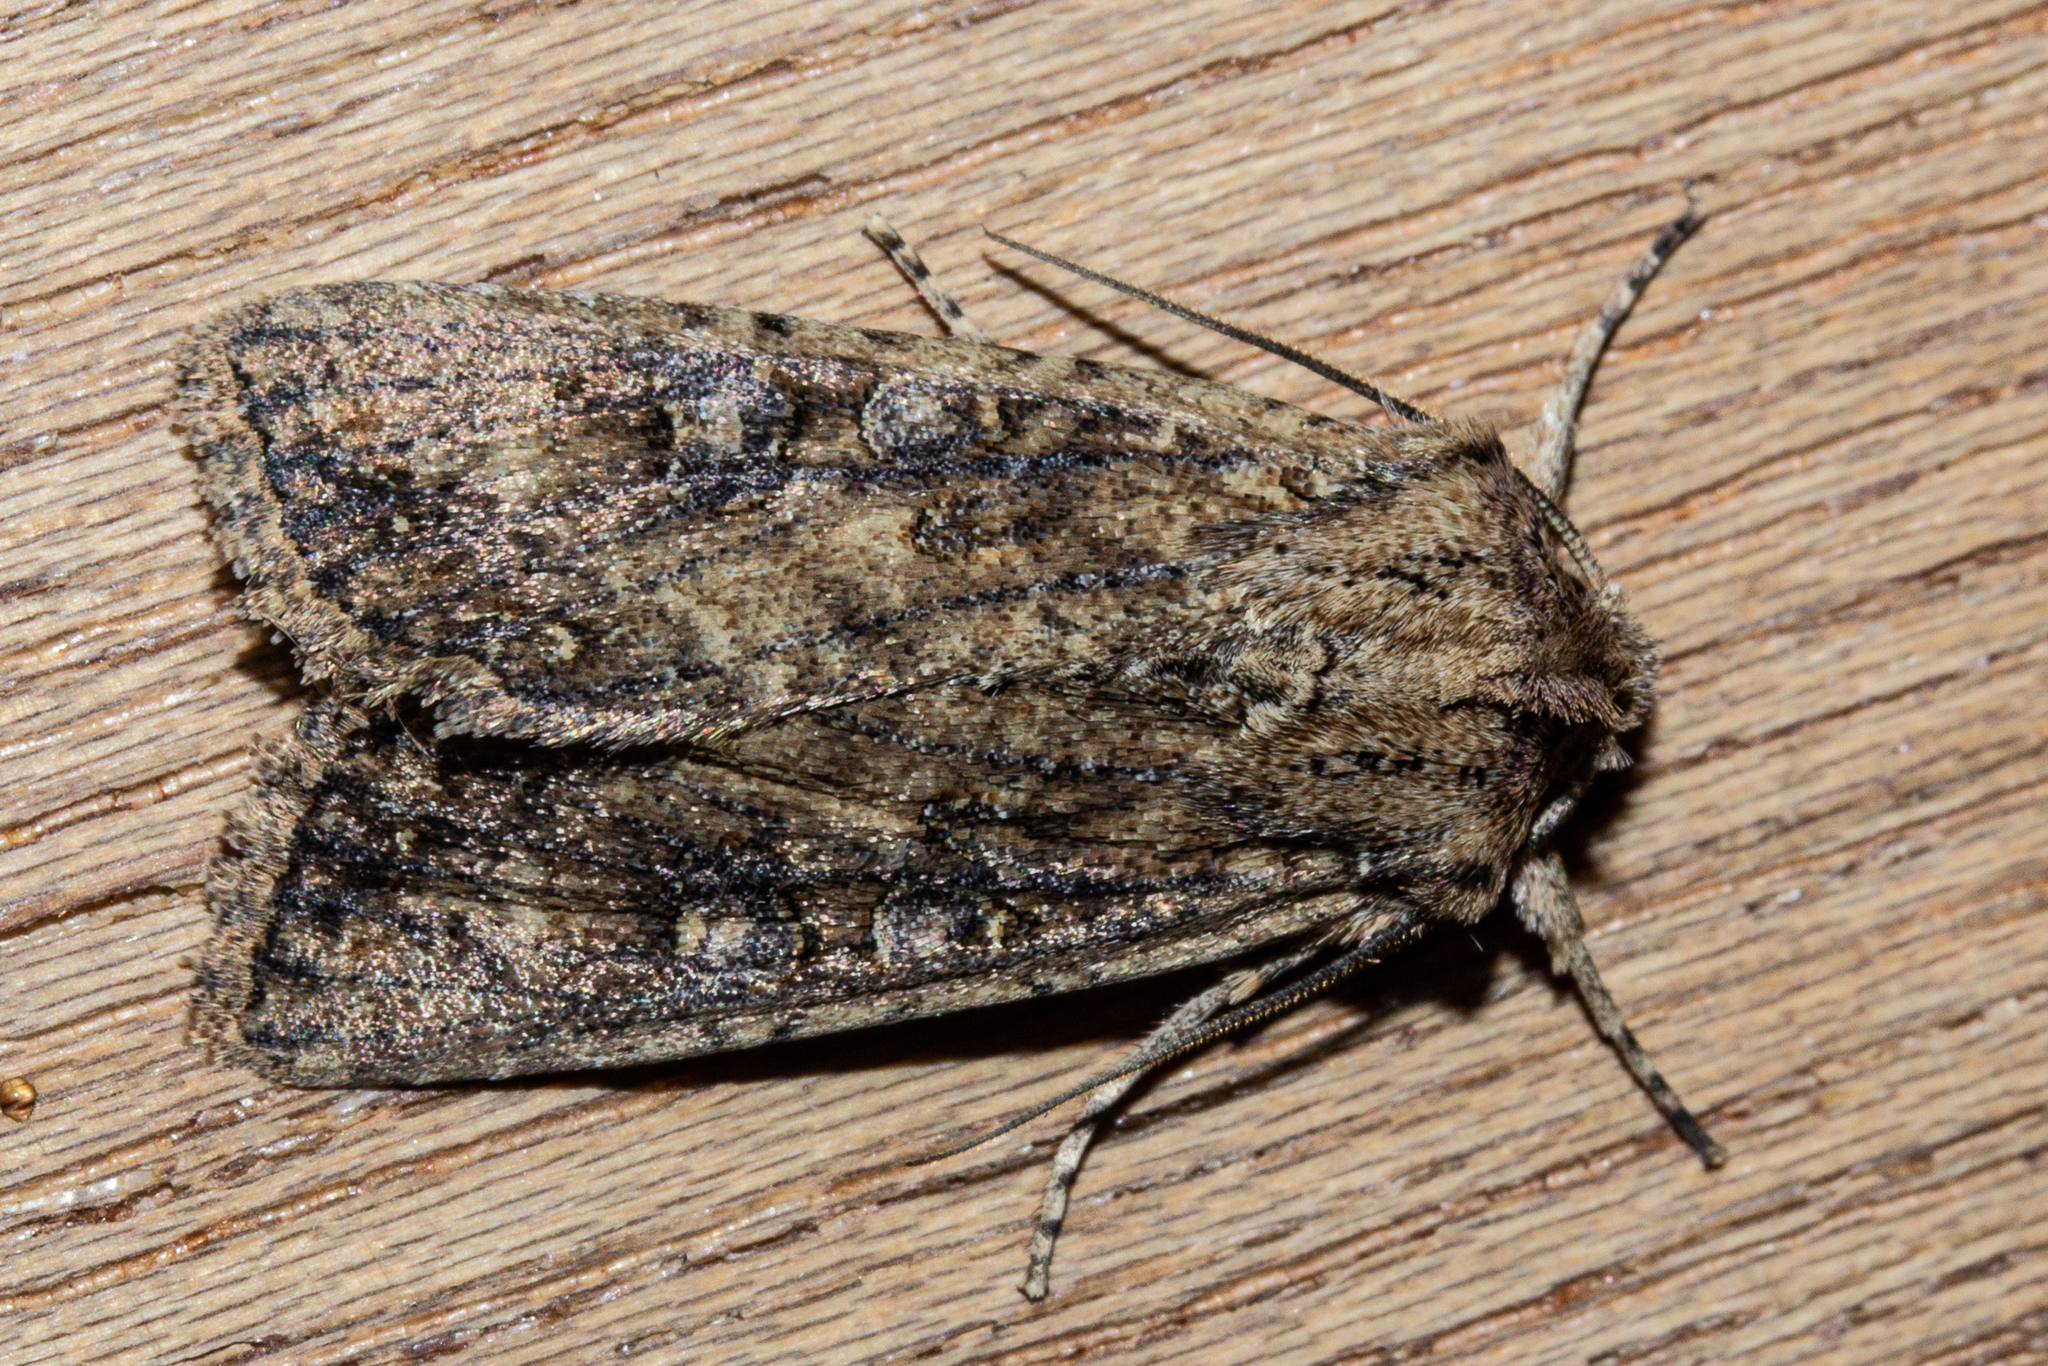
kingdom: Animalia
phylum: Arthropoda
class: Insecta
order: Lepidoptera
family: Noctuidae
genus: Ichneutica
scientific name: Ichneutica morosa
